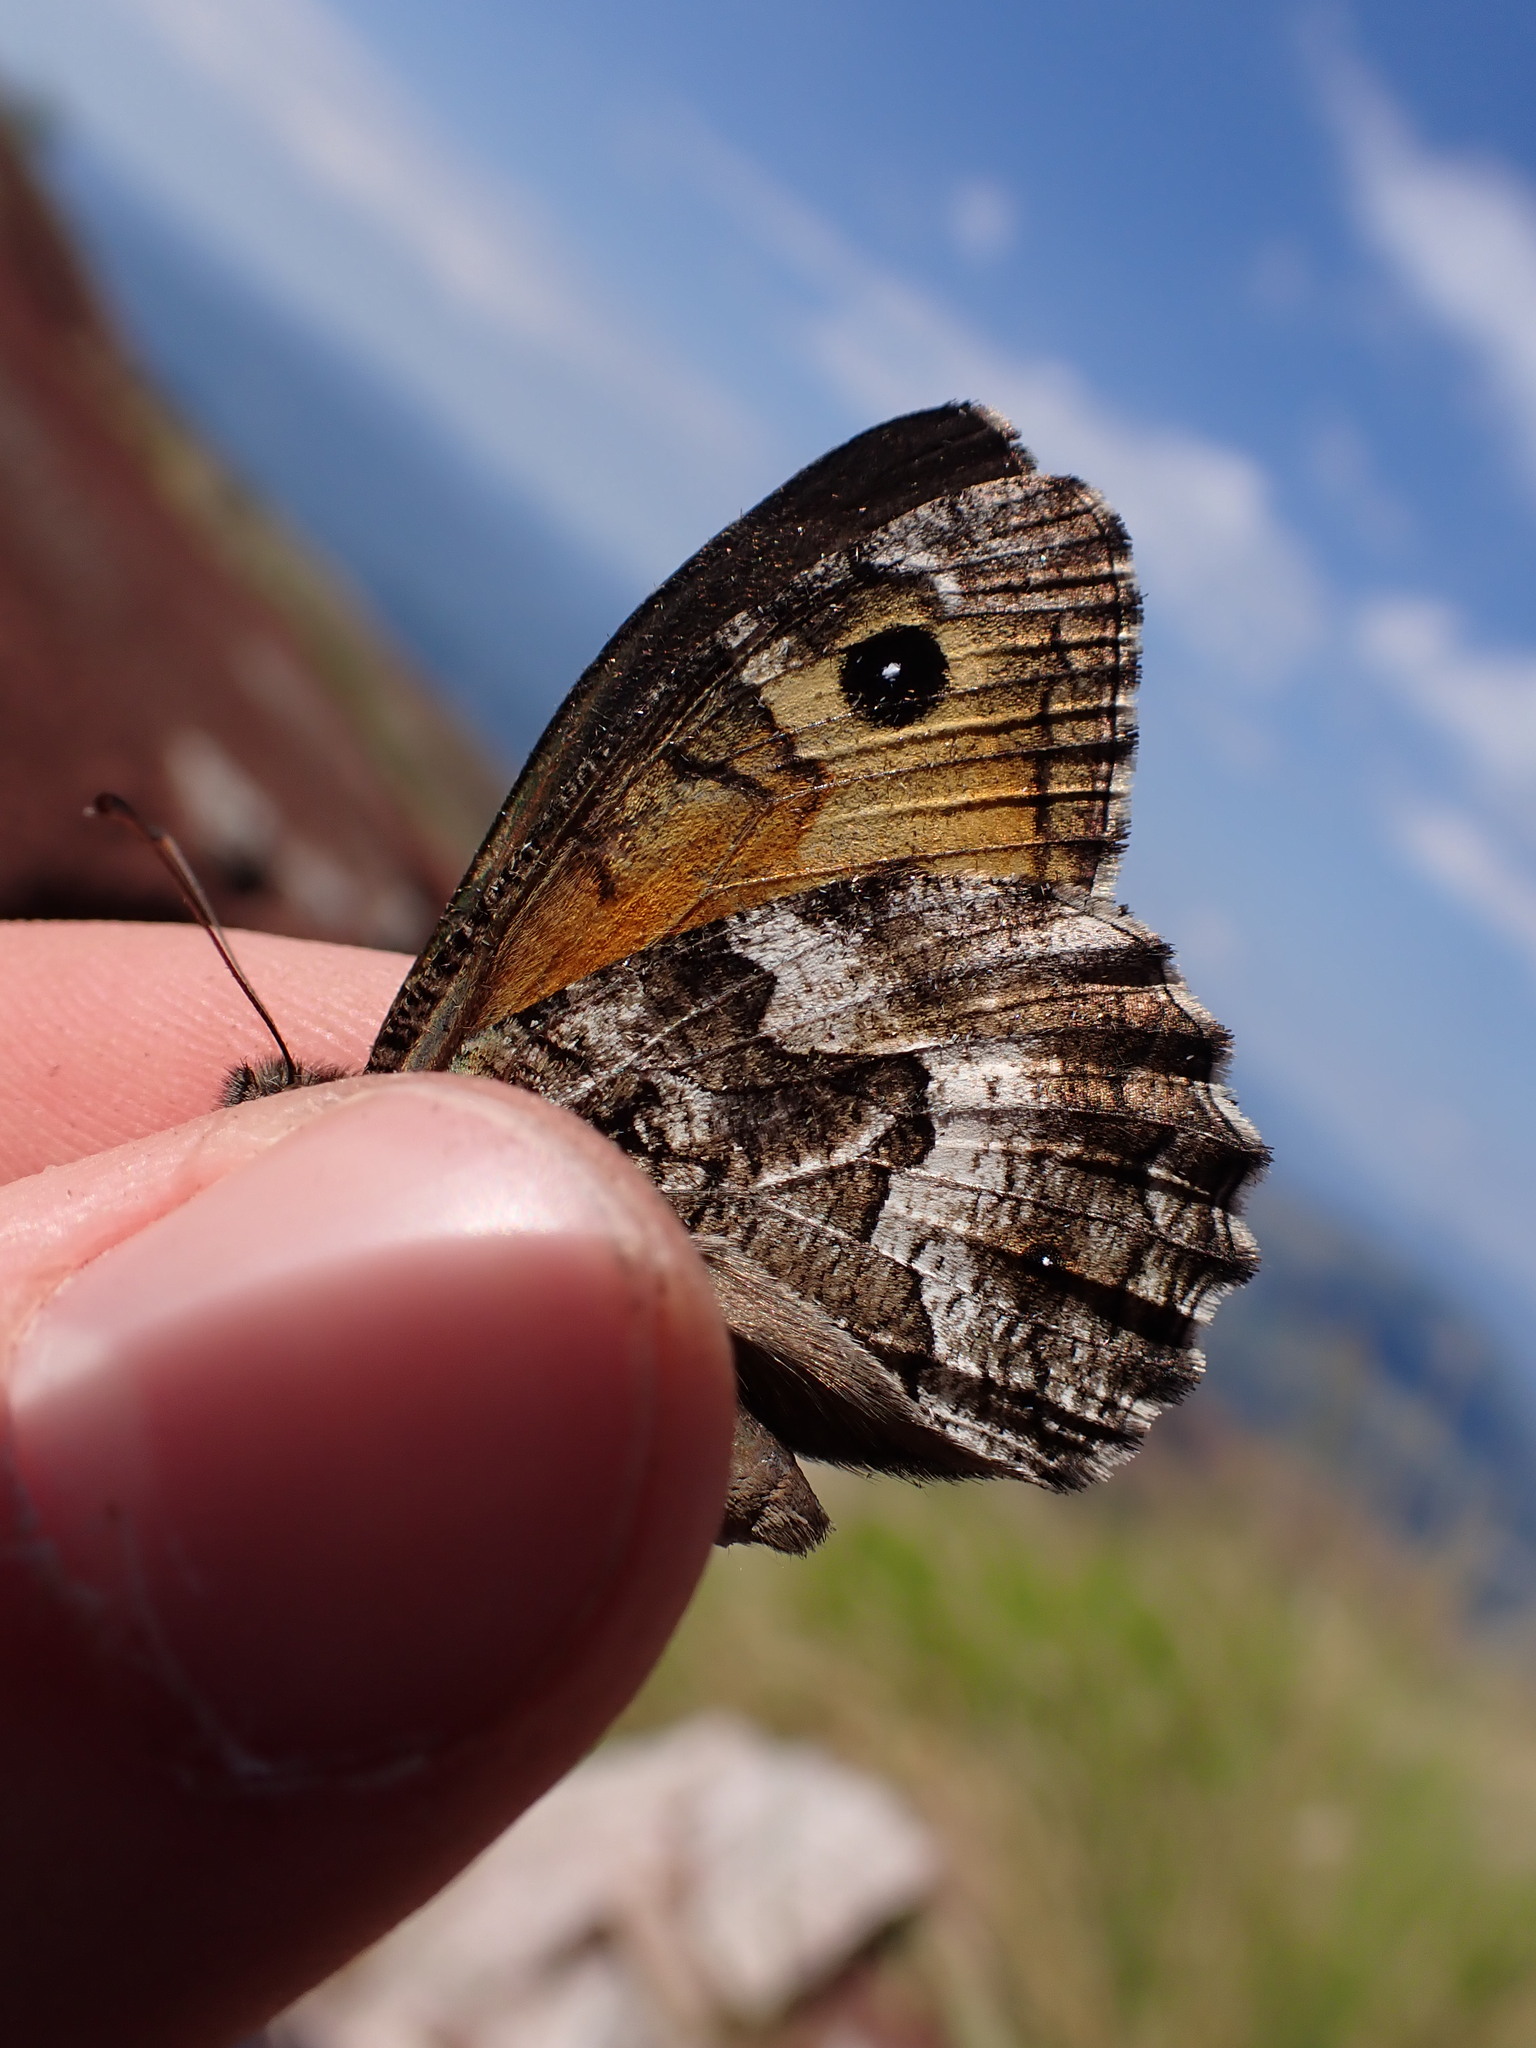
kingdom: Animalia
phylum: Arthropoda
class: Insecta
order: Lepidoptera
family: Nymphalidae
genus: Hipparchia
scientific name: Hipparchia semele
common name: Grayling
